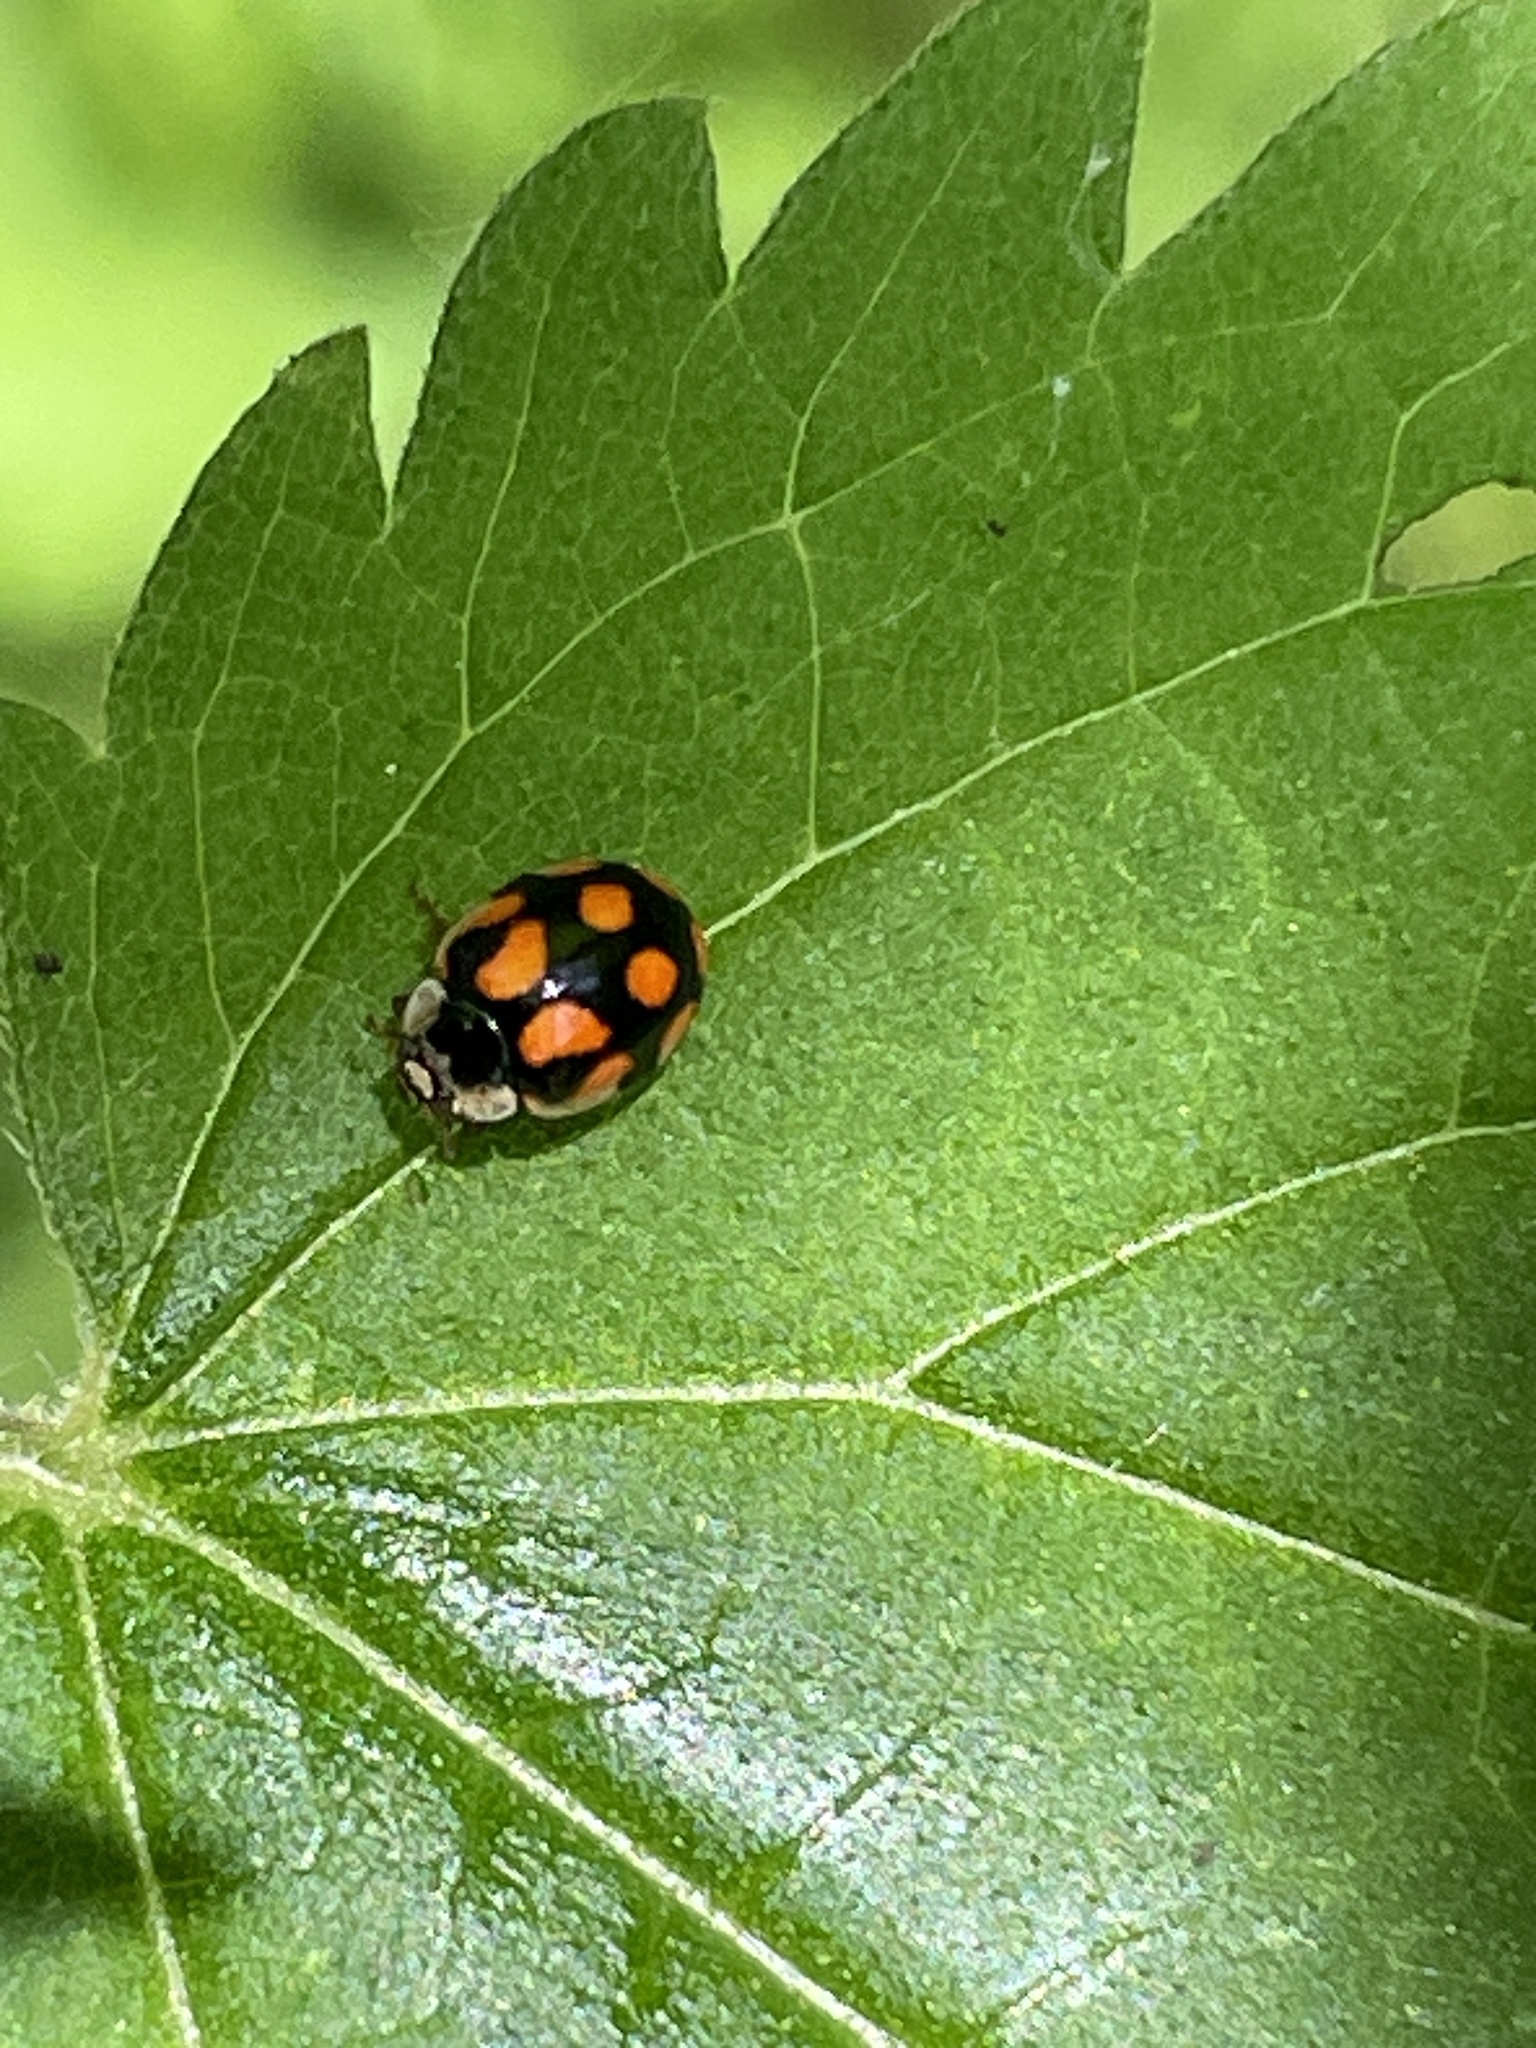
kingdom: Animalia
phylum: Arthropoda
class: Insecta
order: Coleoptera
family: Coccinellidae
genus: Adalia
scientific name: Adalia decempunctata
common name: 10-spot ladybird
